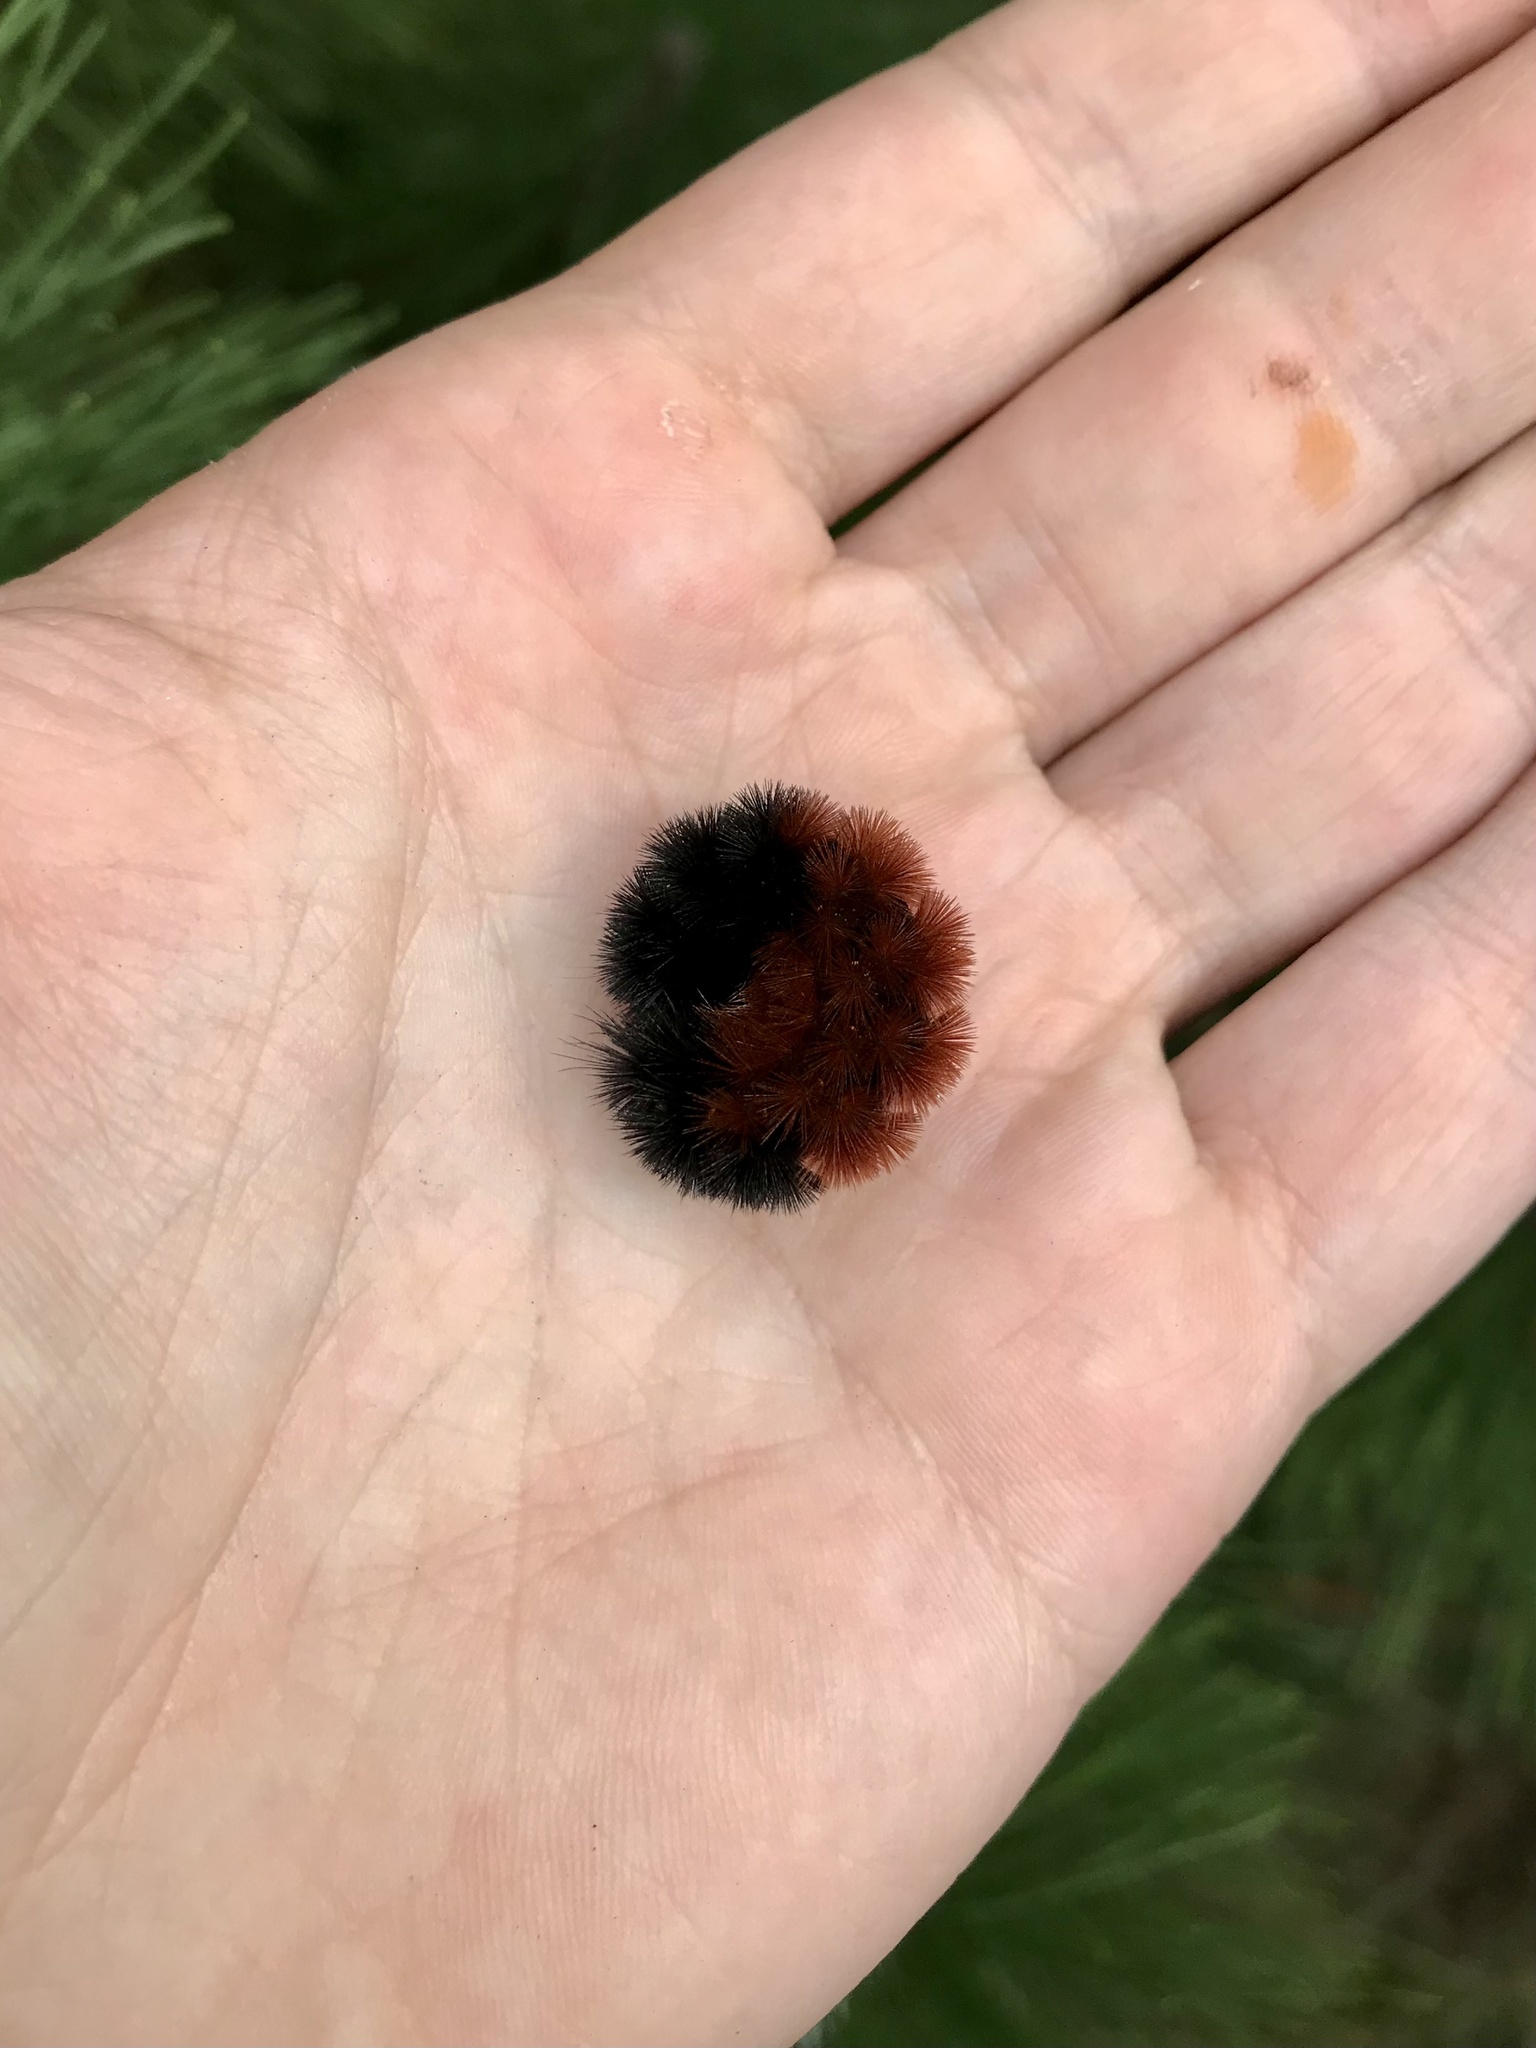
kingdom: Animalia
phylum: Arthropoda
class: Insecta
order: Lepidoptera
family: Erebidae
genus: Pyrrharctia
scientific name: Pyrrharctia isabella
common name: Isabella tiger moth
